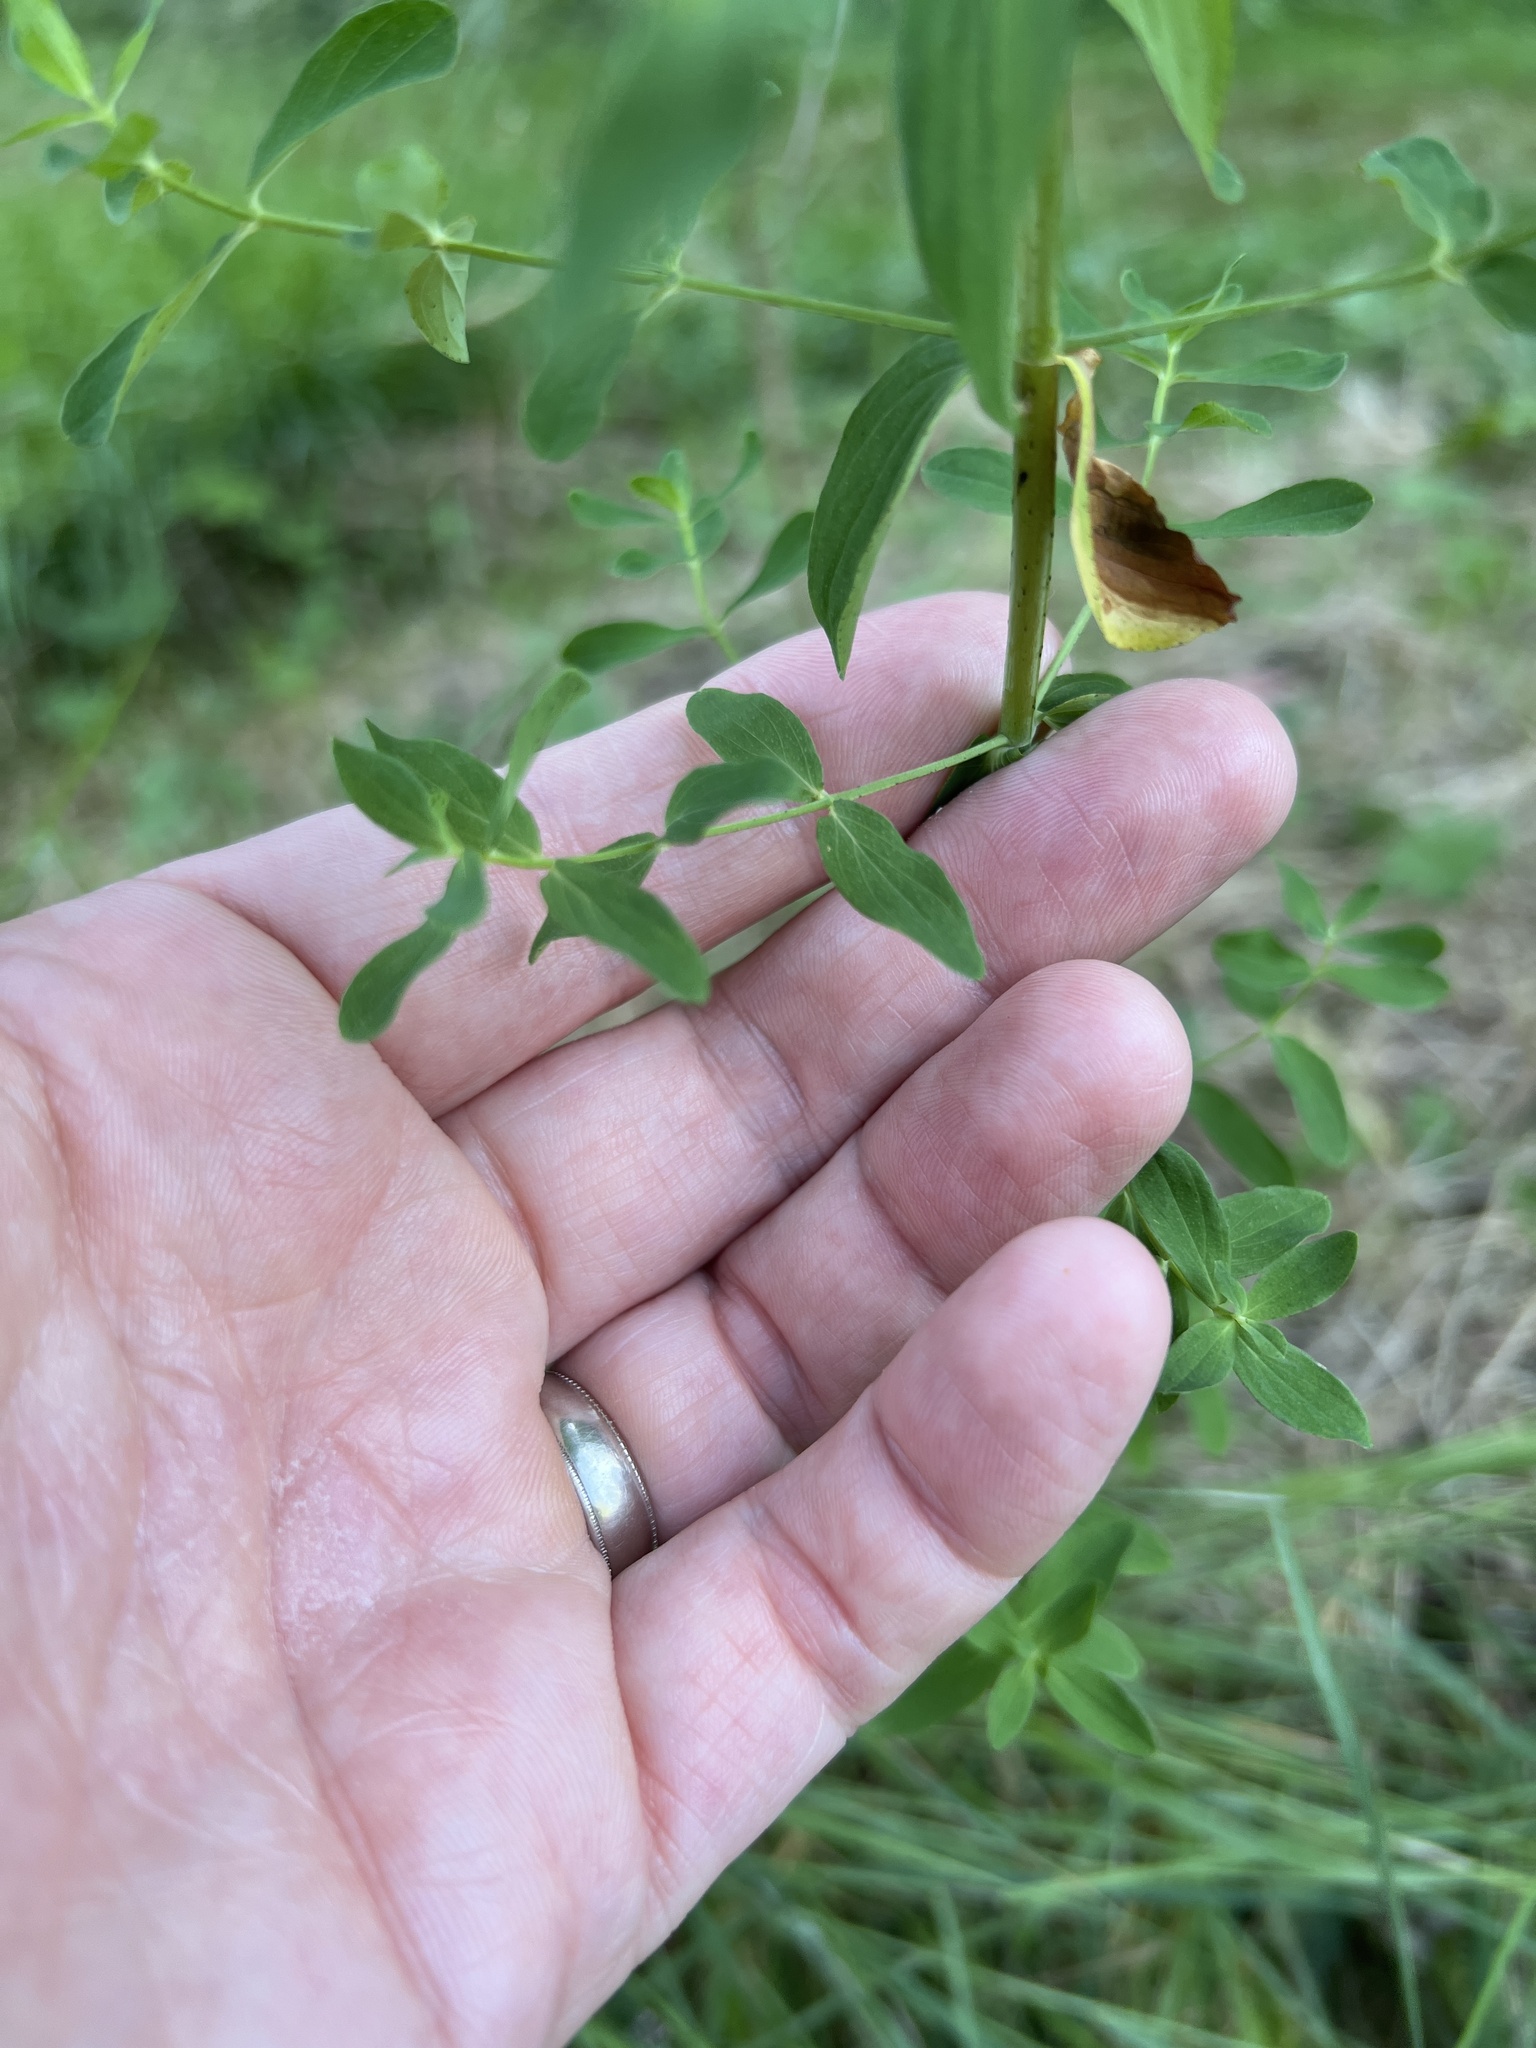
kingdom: Plantae
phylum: Tracheophyta
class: Magnoliopsida
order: Malpighiales
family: Hypericaceae
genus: Hypericum
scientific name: Hypericum perforatum
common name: Common st. johnswort
